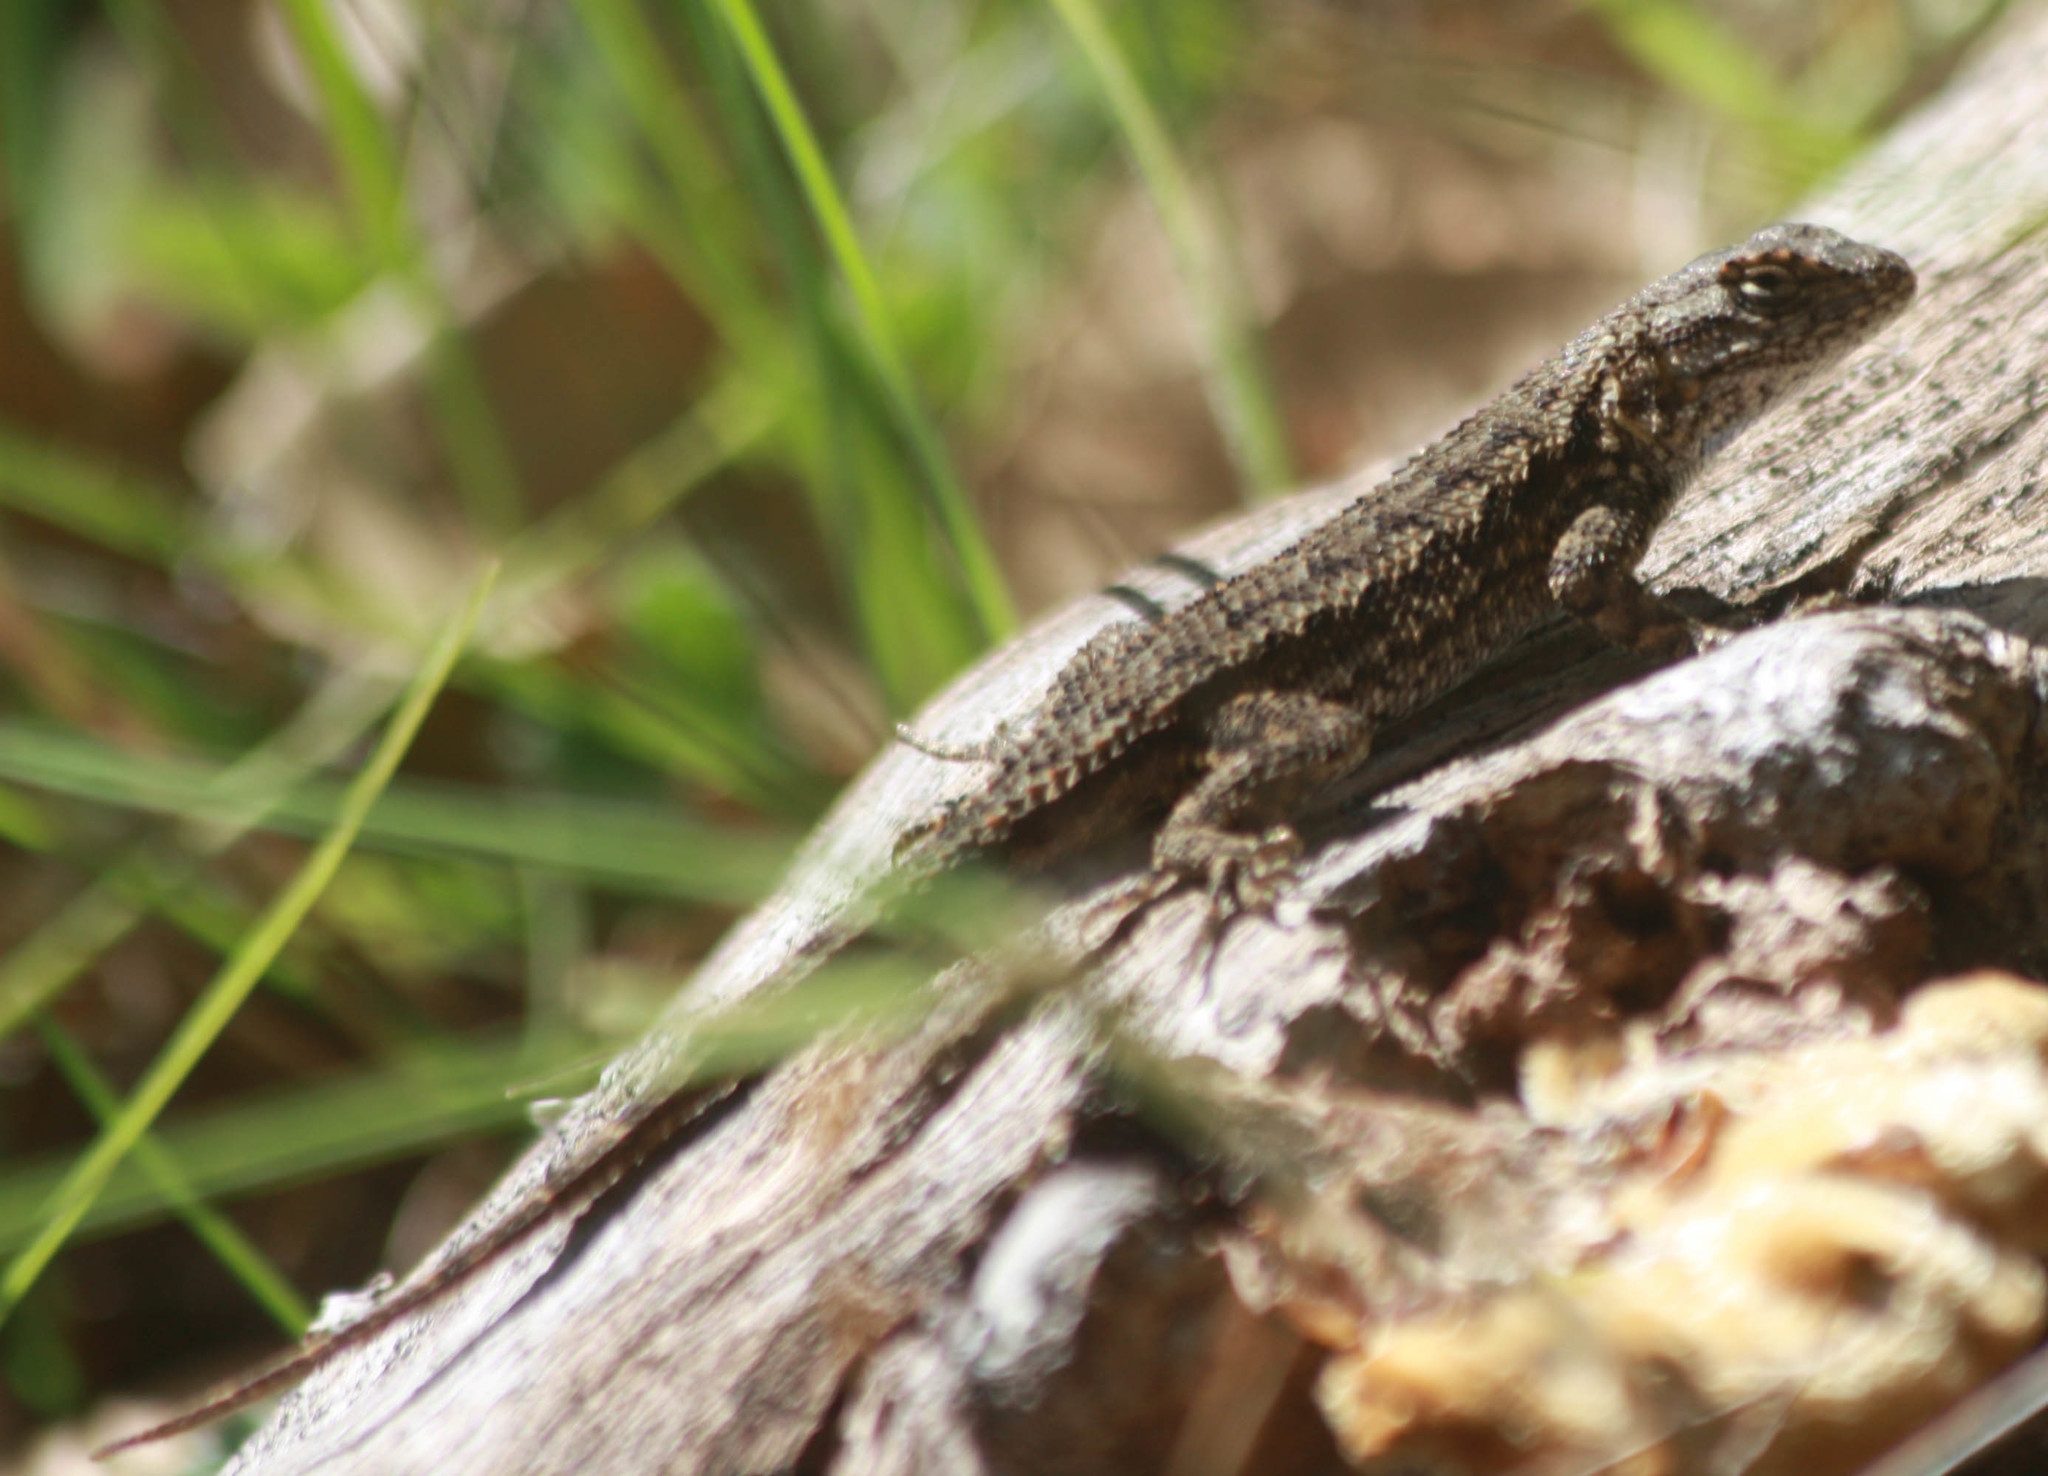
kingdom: Animalia
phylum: Chordata
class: Squamata
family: Phrynosomatidae
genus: Sceloporus
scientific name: Sceloporus occidentalis
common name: Western fence lizard
